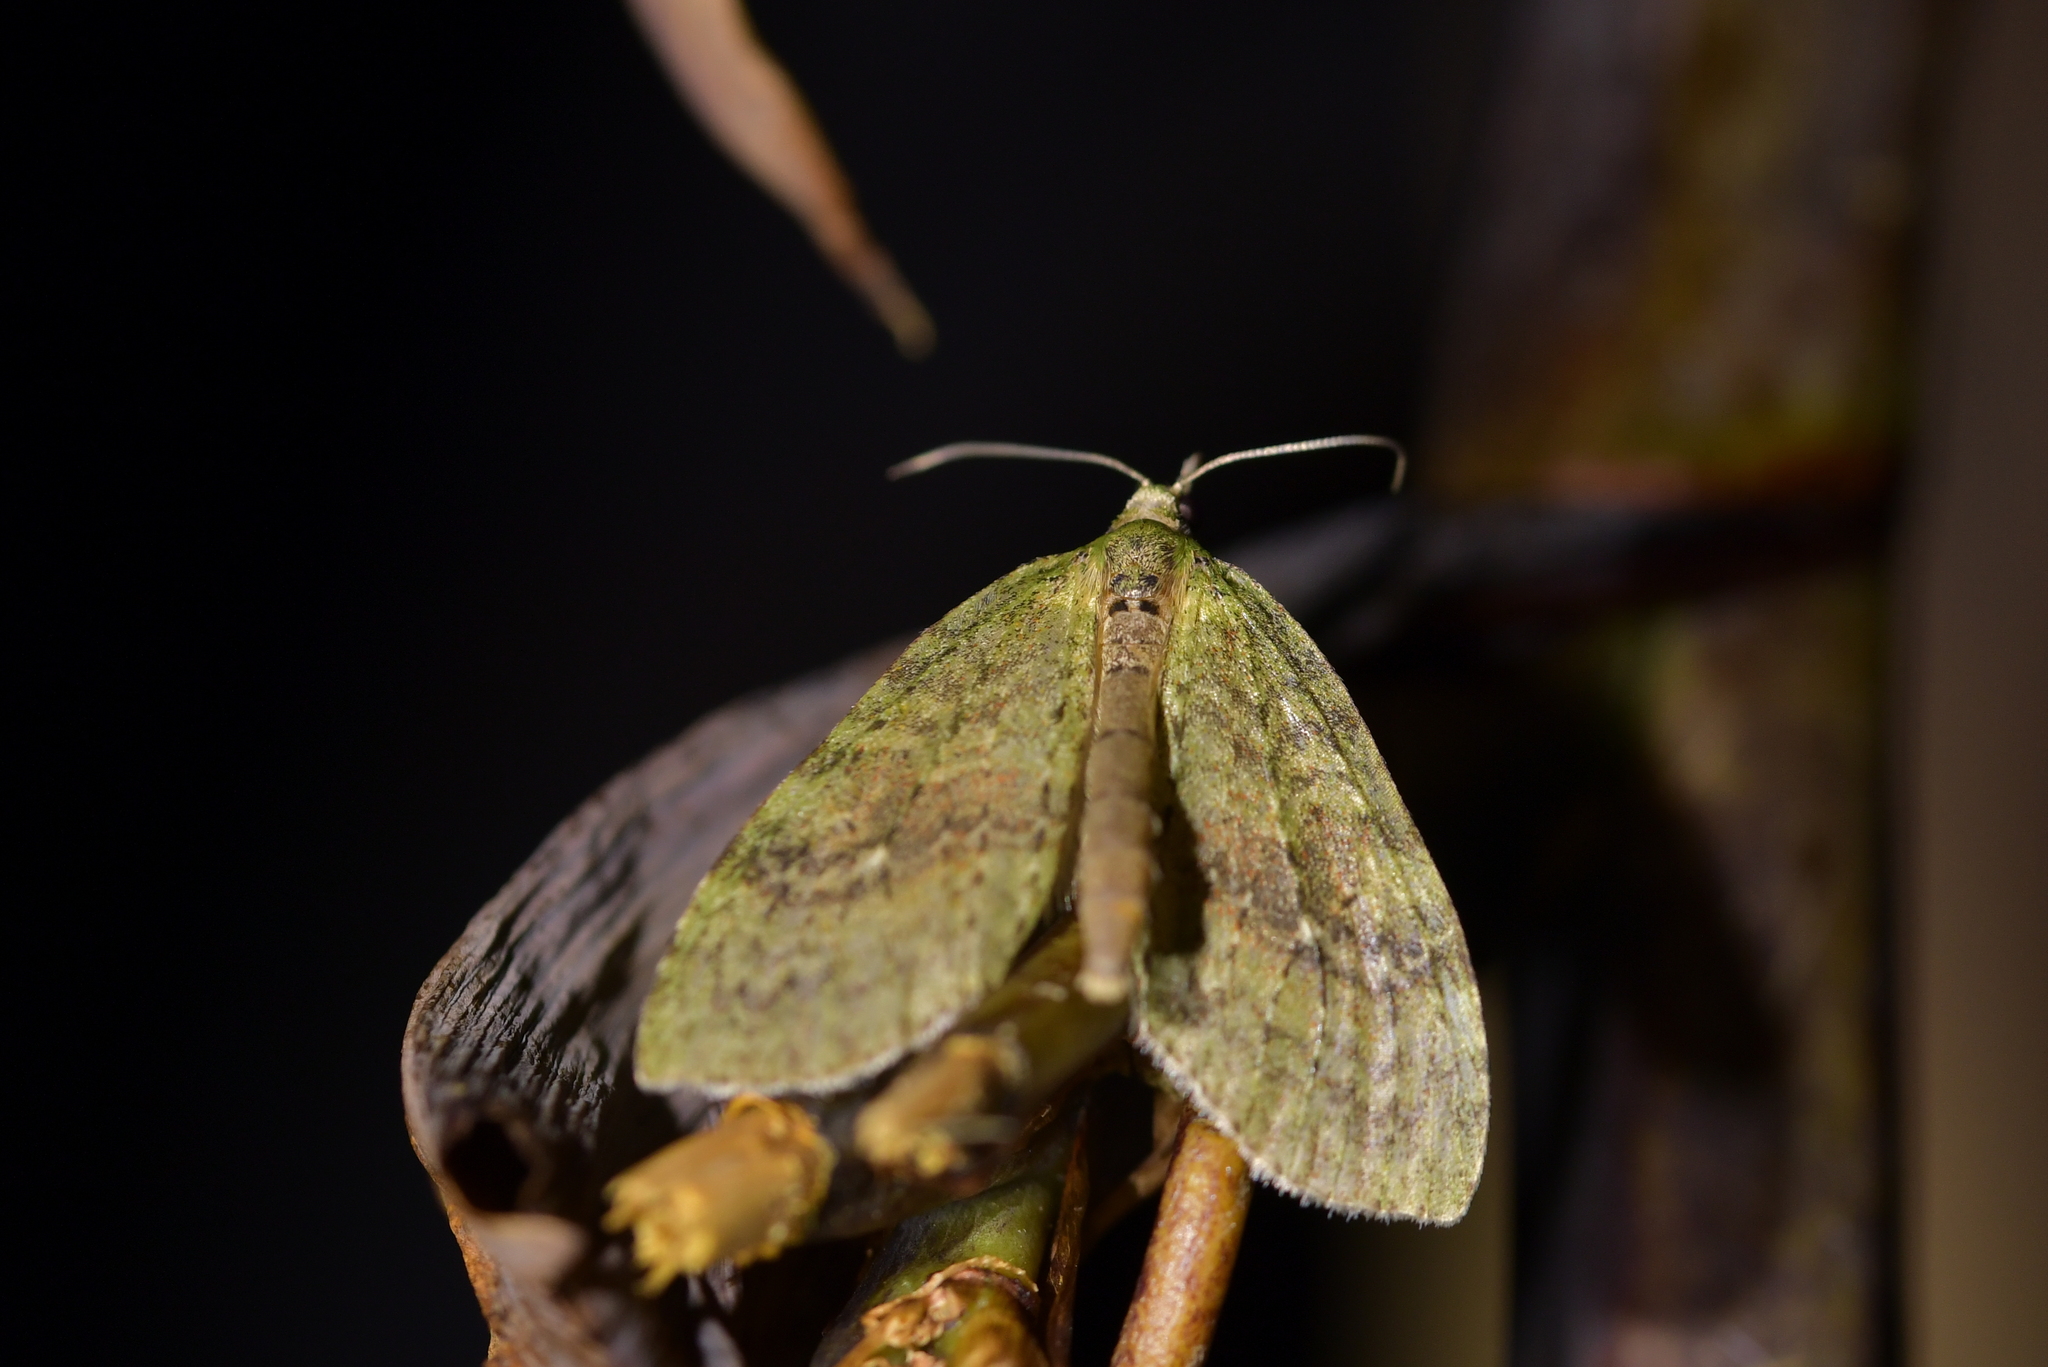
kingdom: Animalia
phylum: Arthropoda
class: Insecta
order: Lepidoptera
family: Geometridae
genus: Tatosoma
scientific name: Tatosoma transitaria
